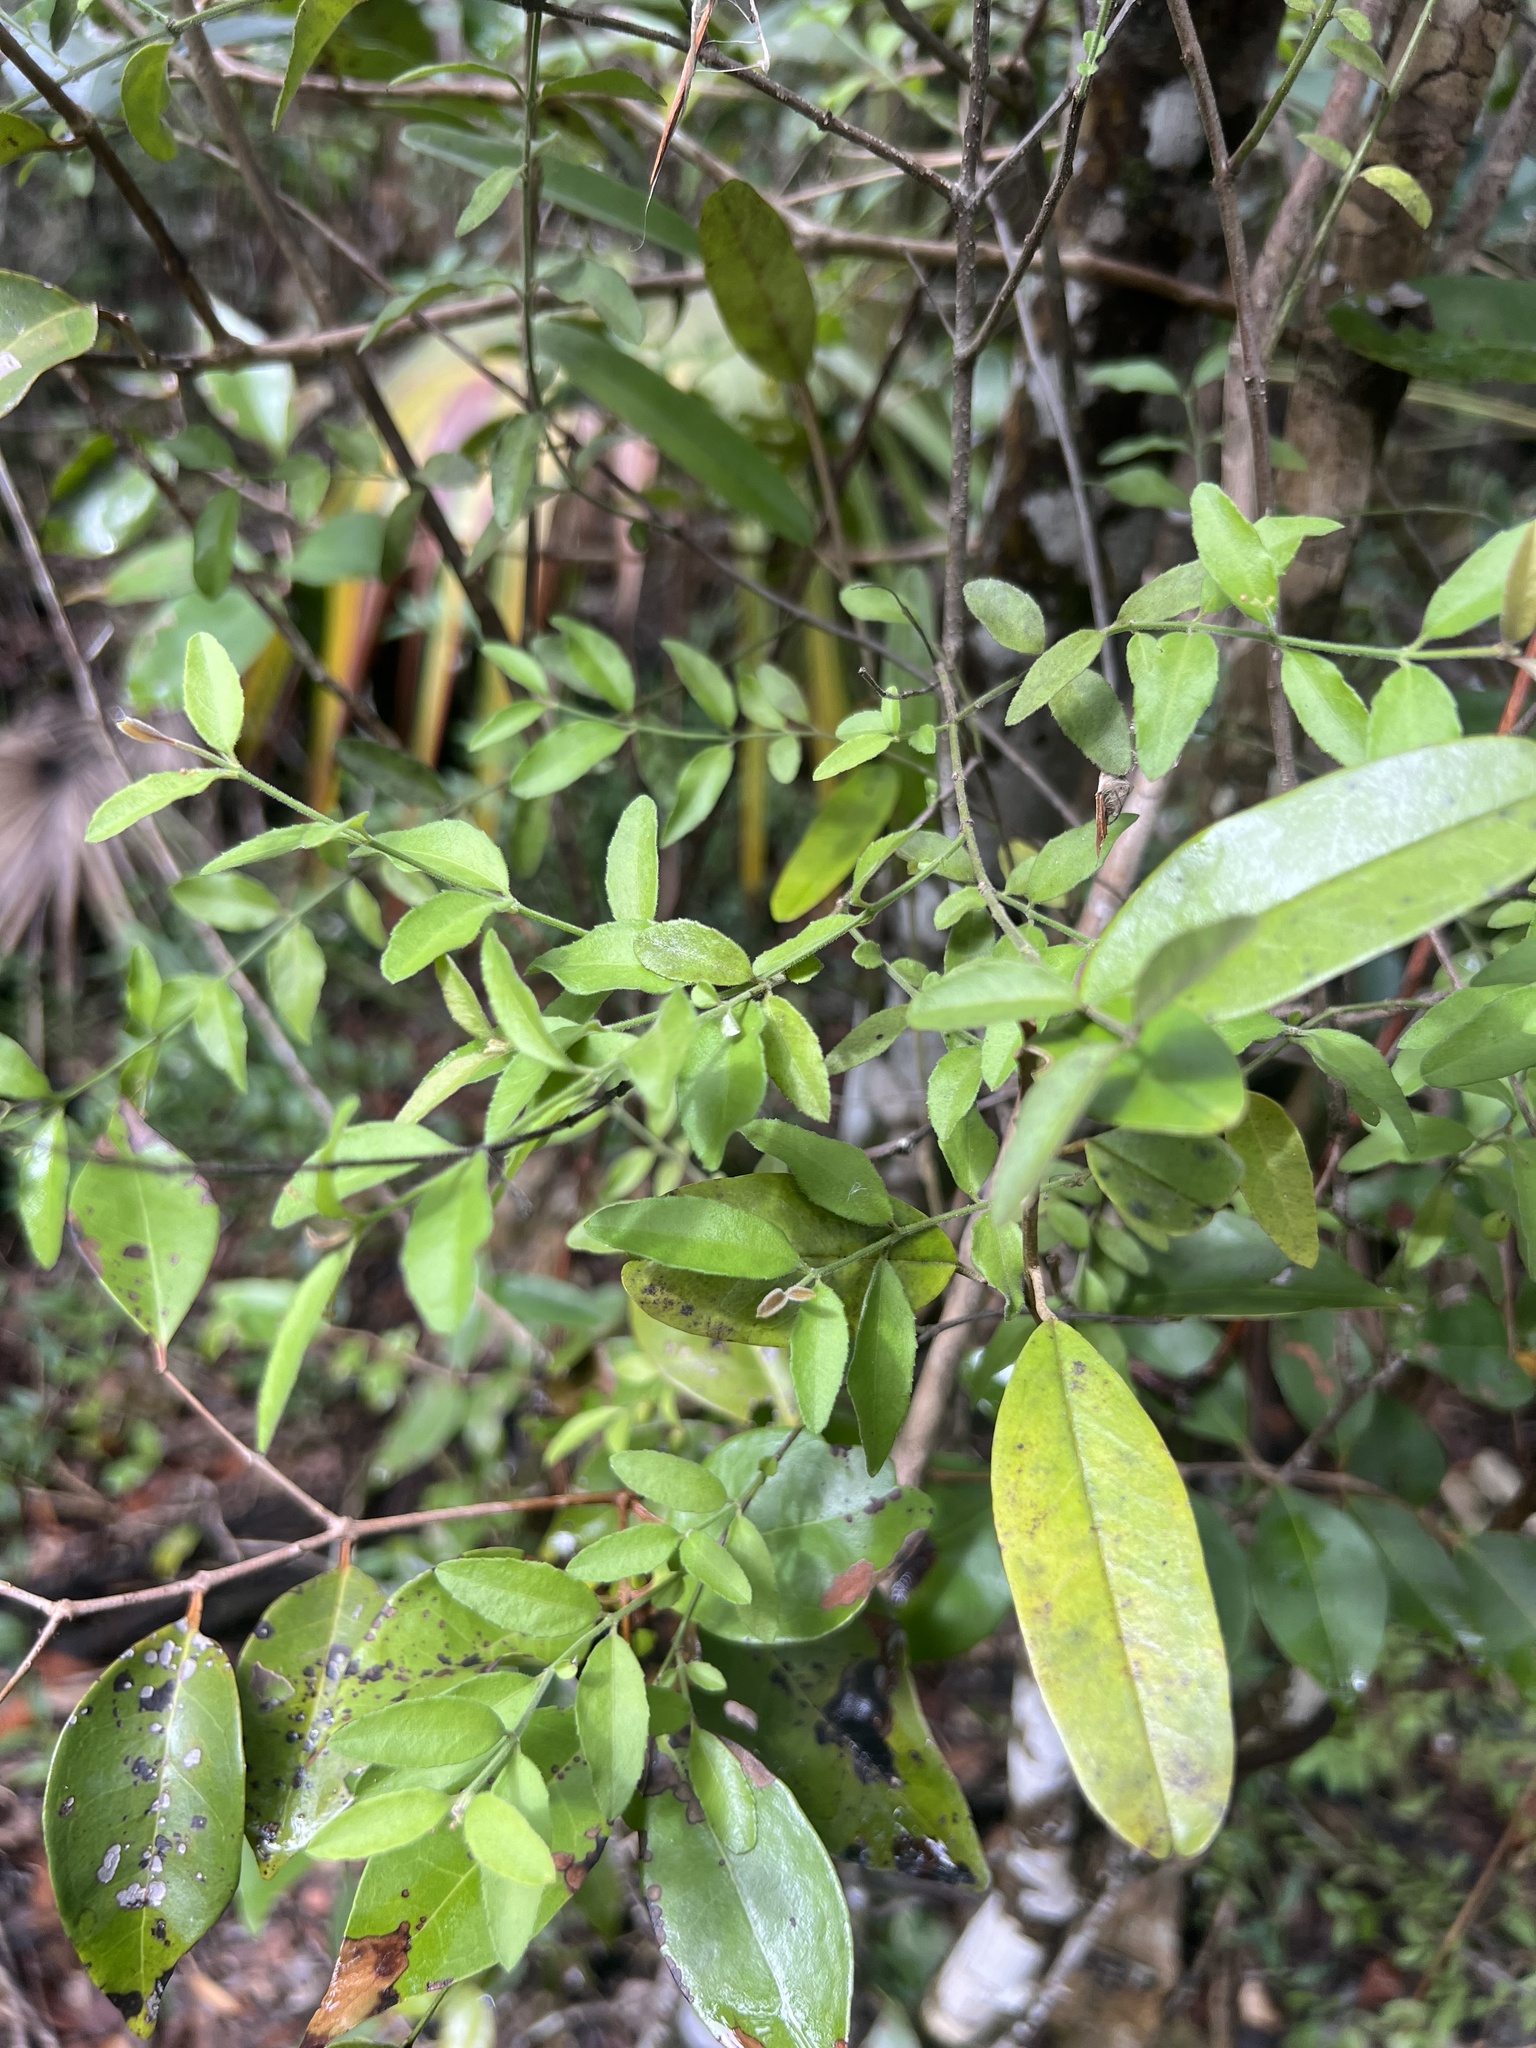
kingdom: Plantae
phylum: Tracheophyta
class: Magnoliopsida
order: Celastrales
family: Celastraceae
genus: Crossopetalum
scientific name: Crossopetalum uragoga
